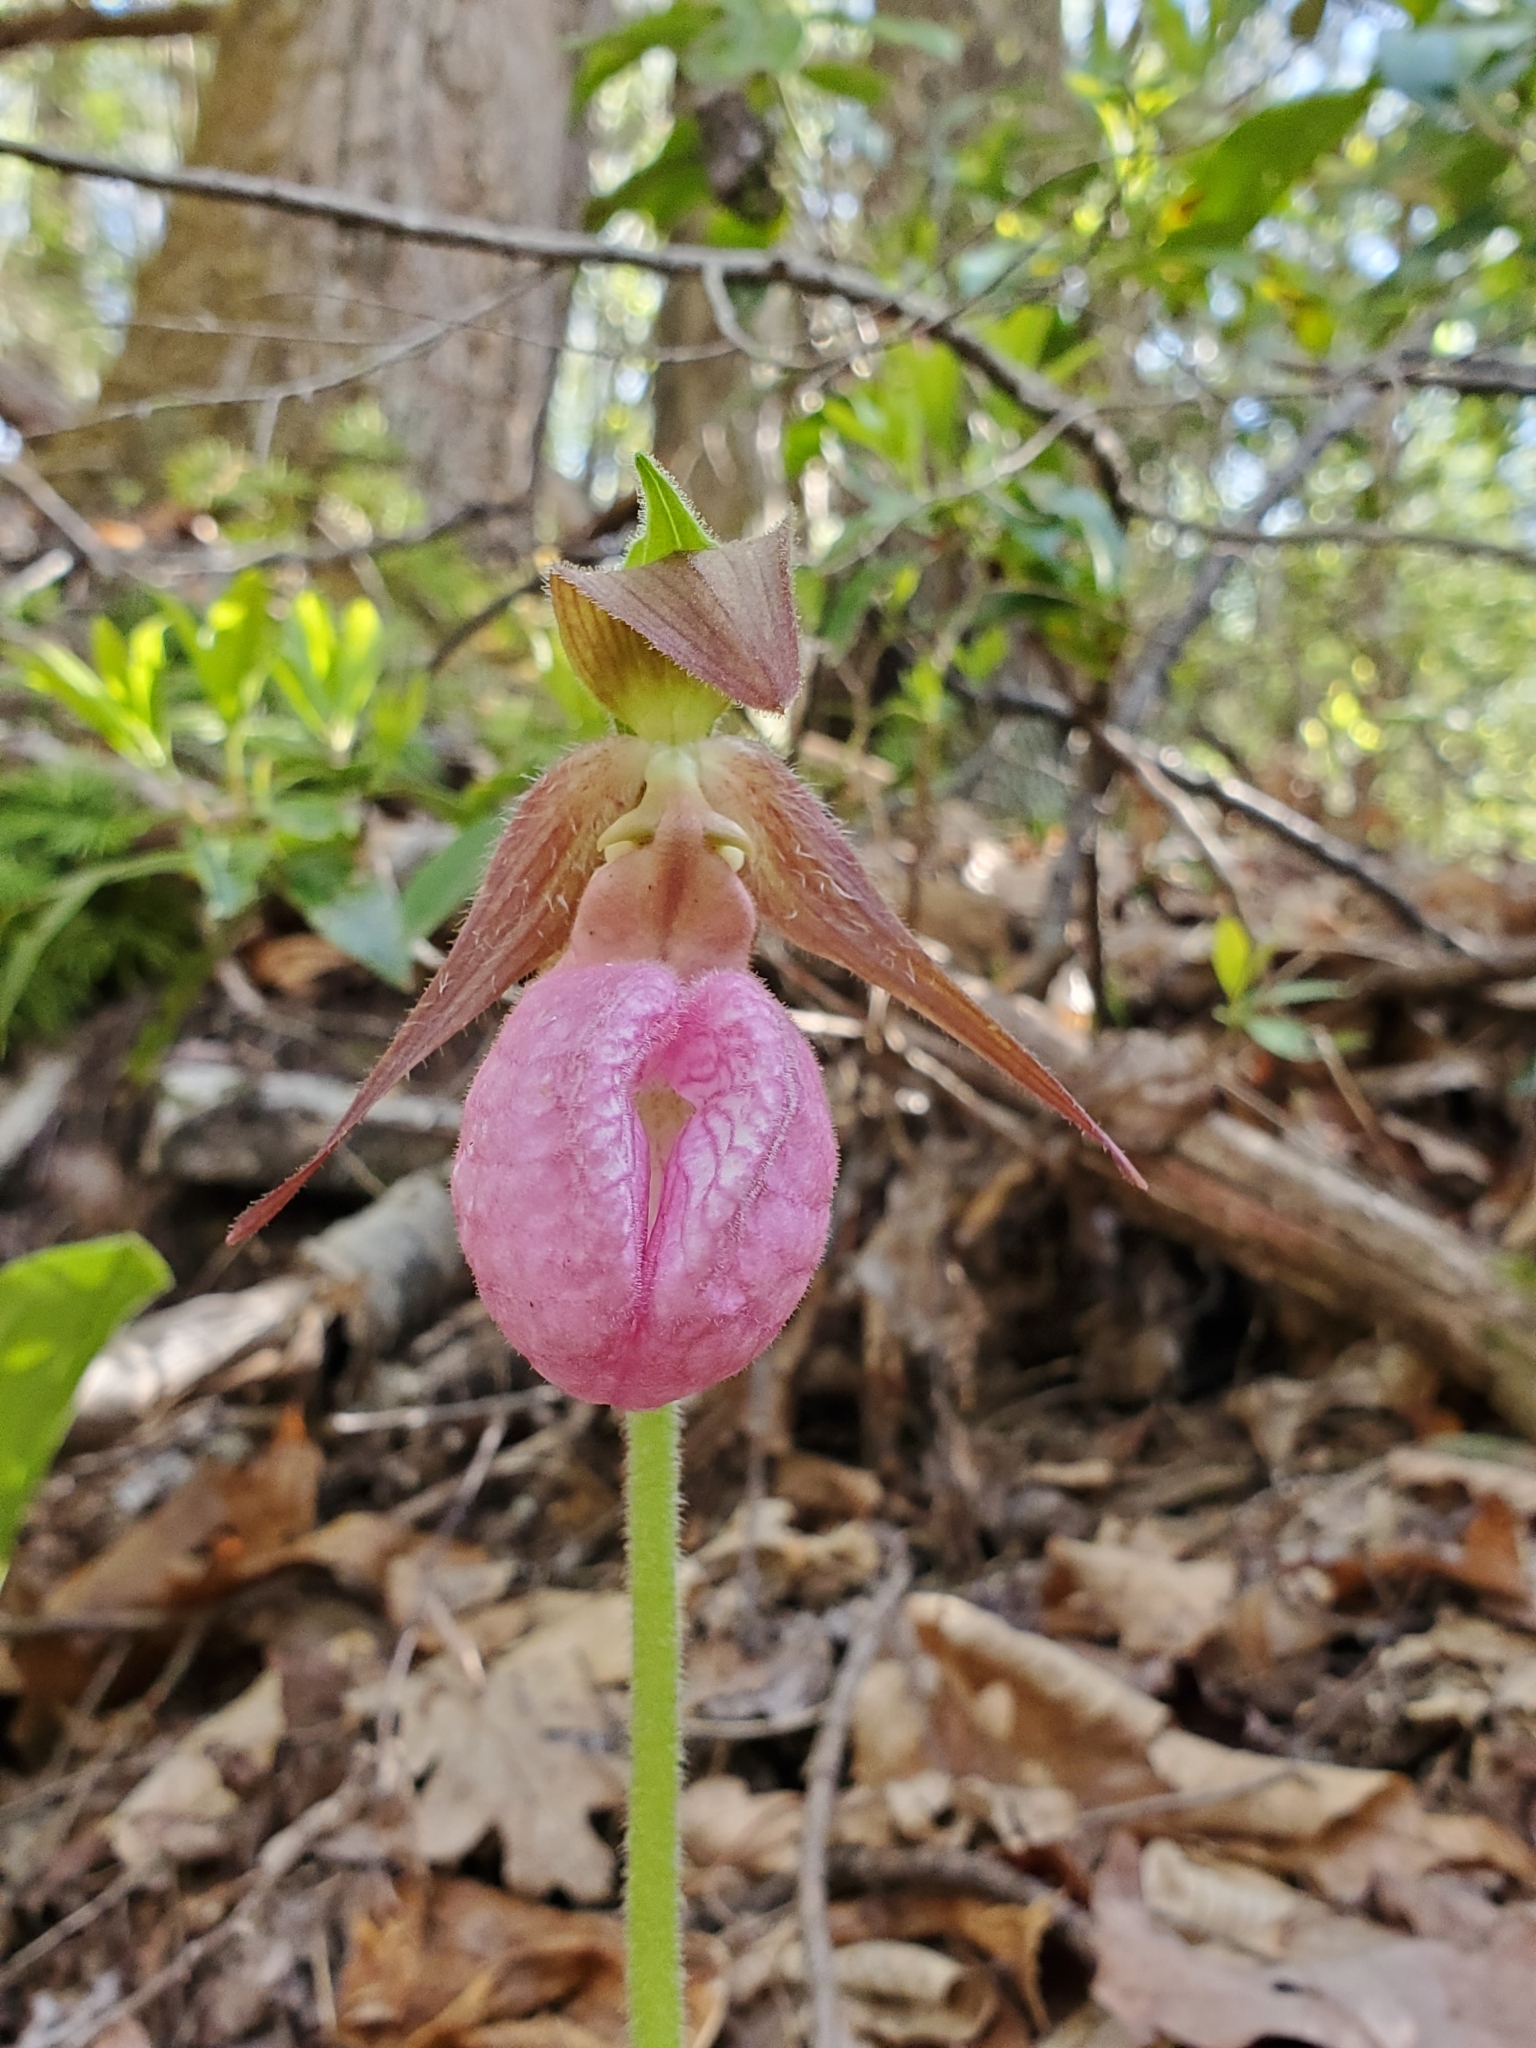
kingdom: Plantae
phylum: Tracheophyta
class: Liliopsida
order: Asparagales
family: Orchidaceae
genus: Cypripedium
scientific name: Cypripedium acaule
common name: Pink lady's-slipper
